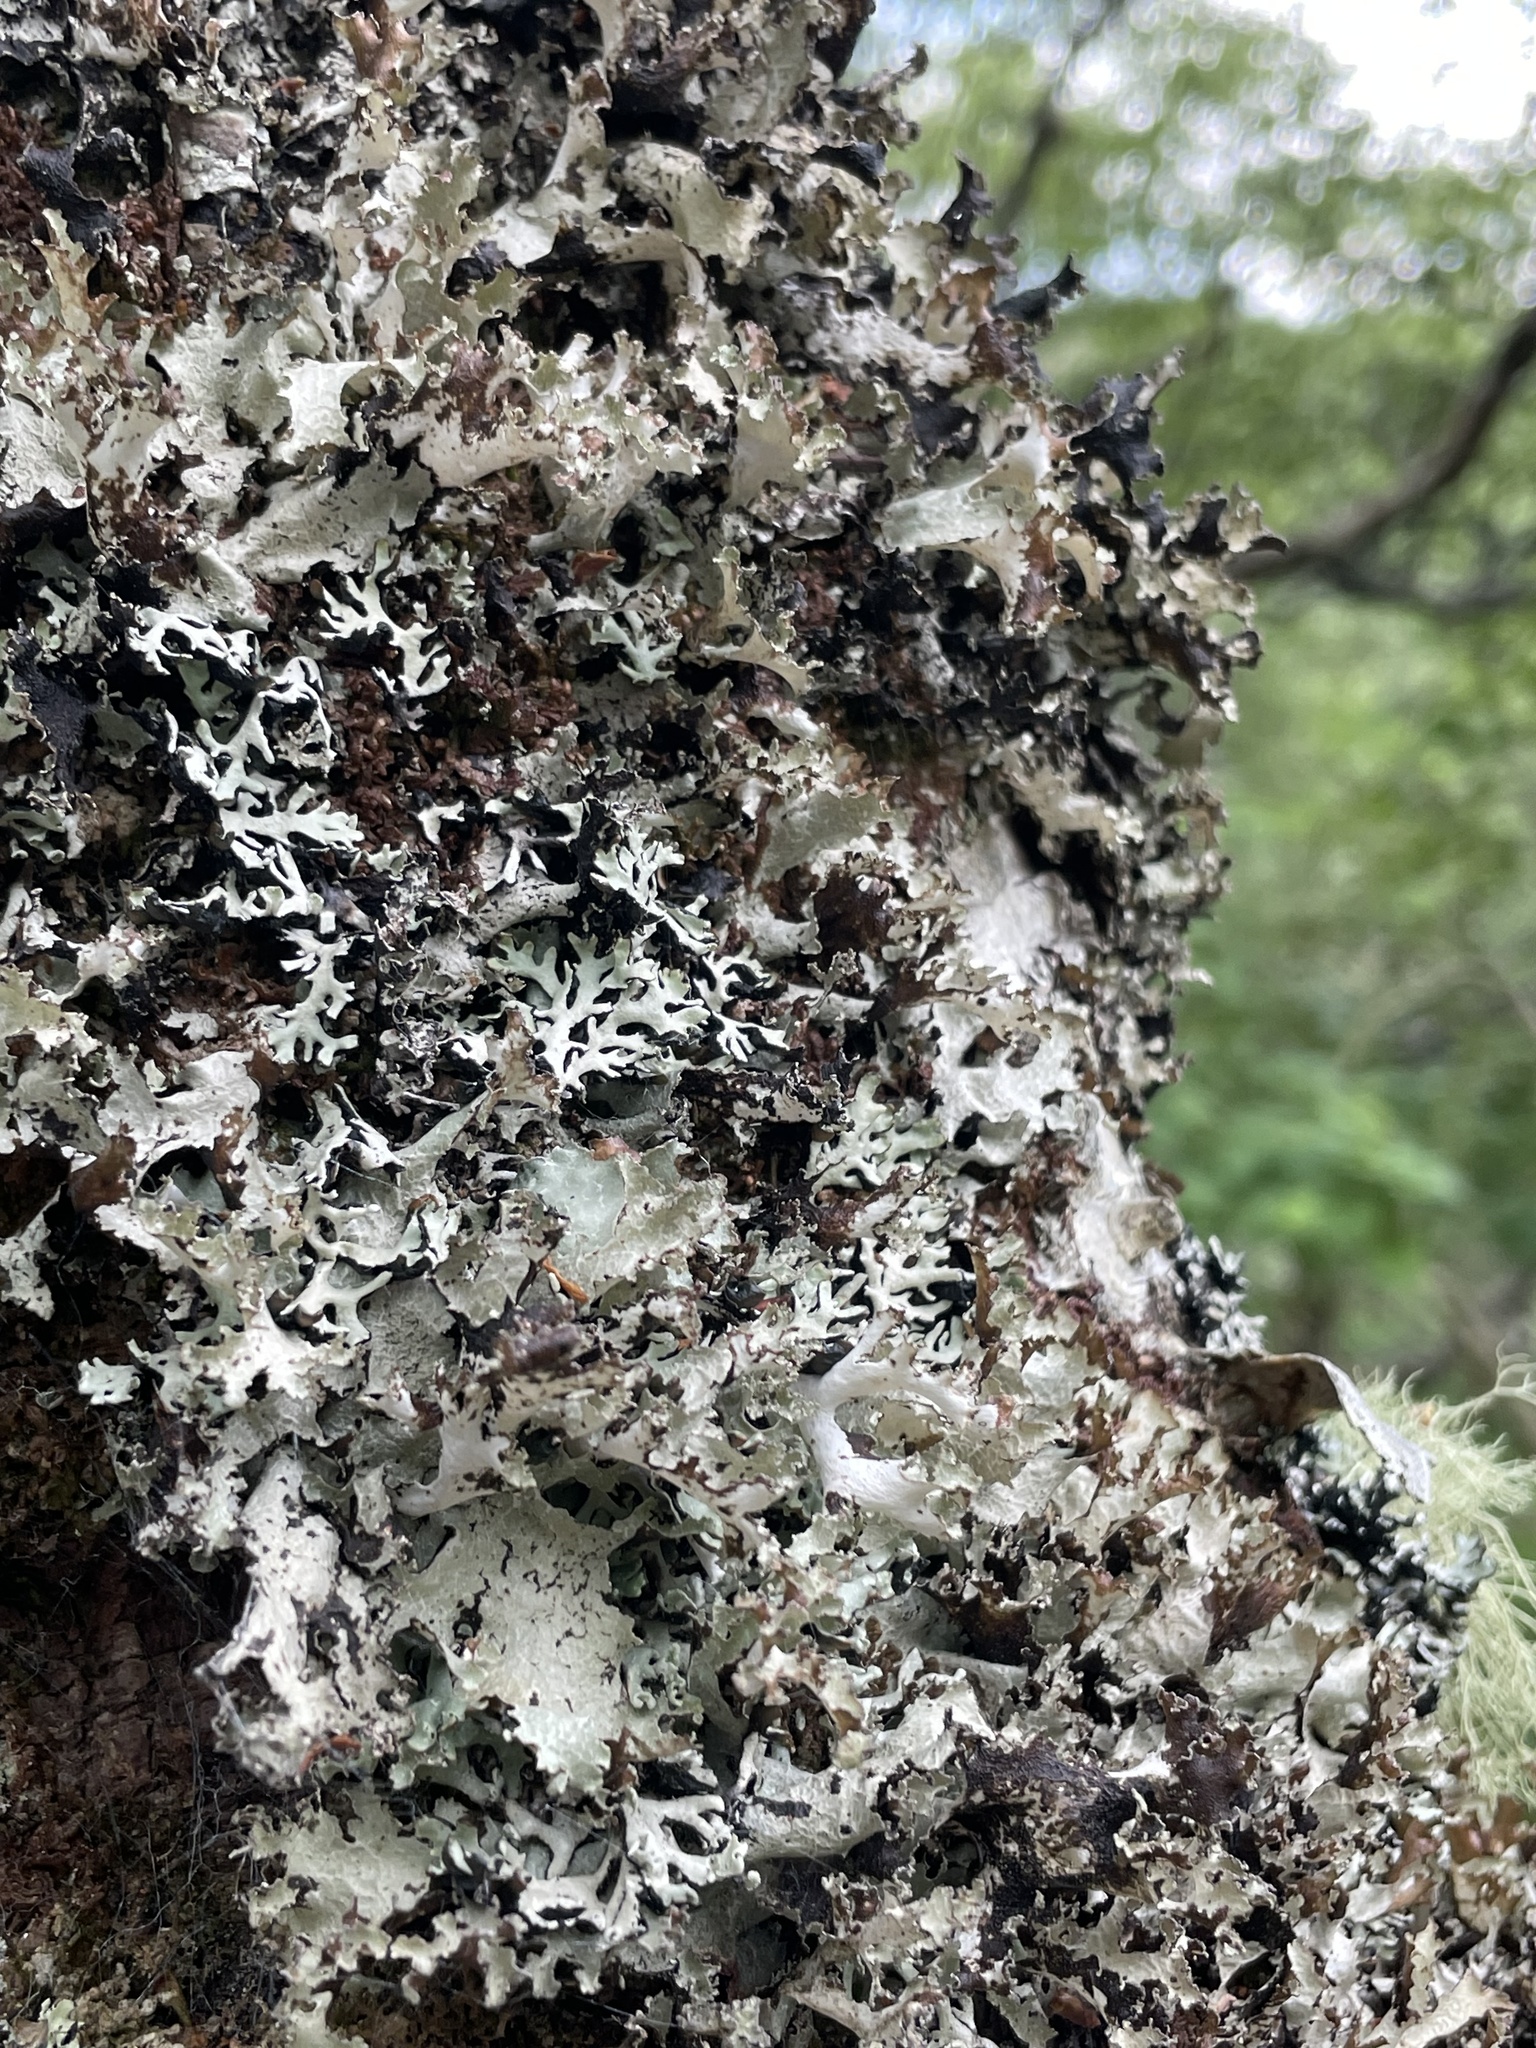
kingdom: Fungi
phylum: Ascomycota
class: Lecanoromycetes
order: Lecanorales
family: Parmeliaceae
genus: Platismatia
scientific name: Platismatia glauca
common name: Varied rag lichen
